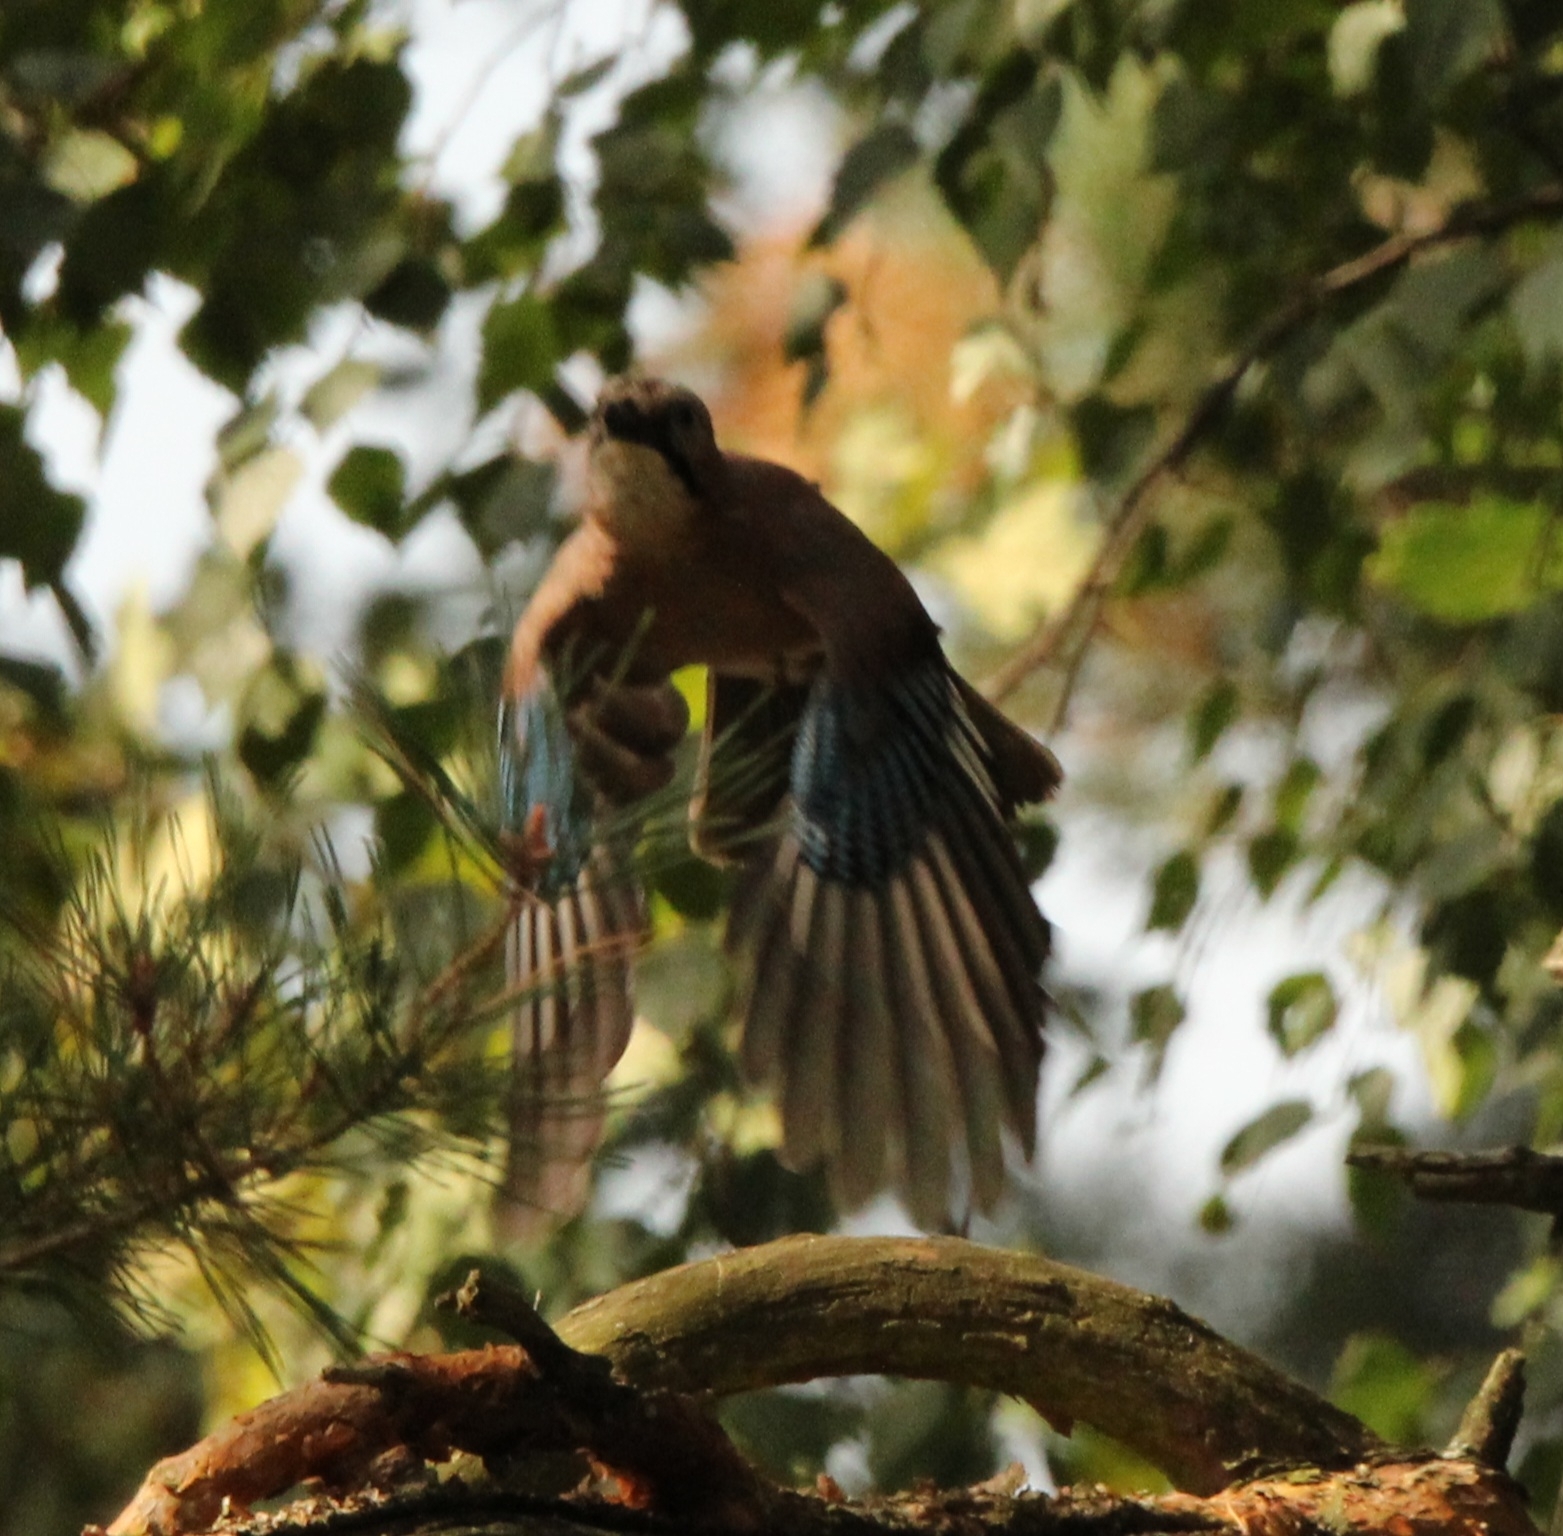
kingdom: Animalia
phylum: Chordata
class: Aves
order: Passeriformes
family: Corvidae
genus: Garrulus
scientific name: Garrulus glandarius
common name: Eurasian jay
